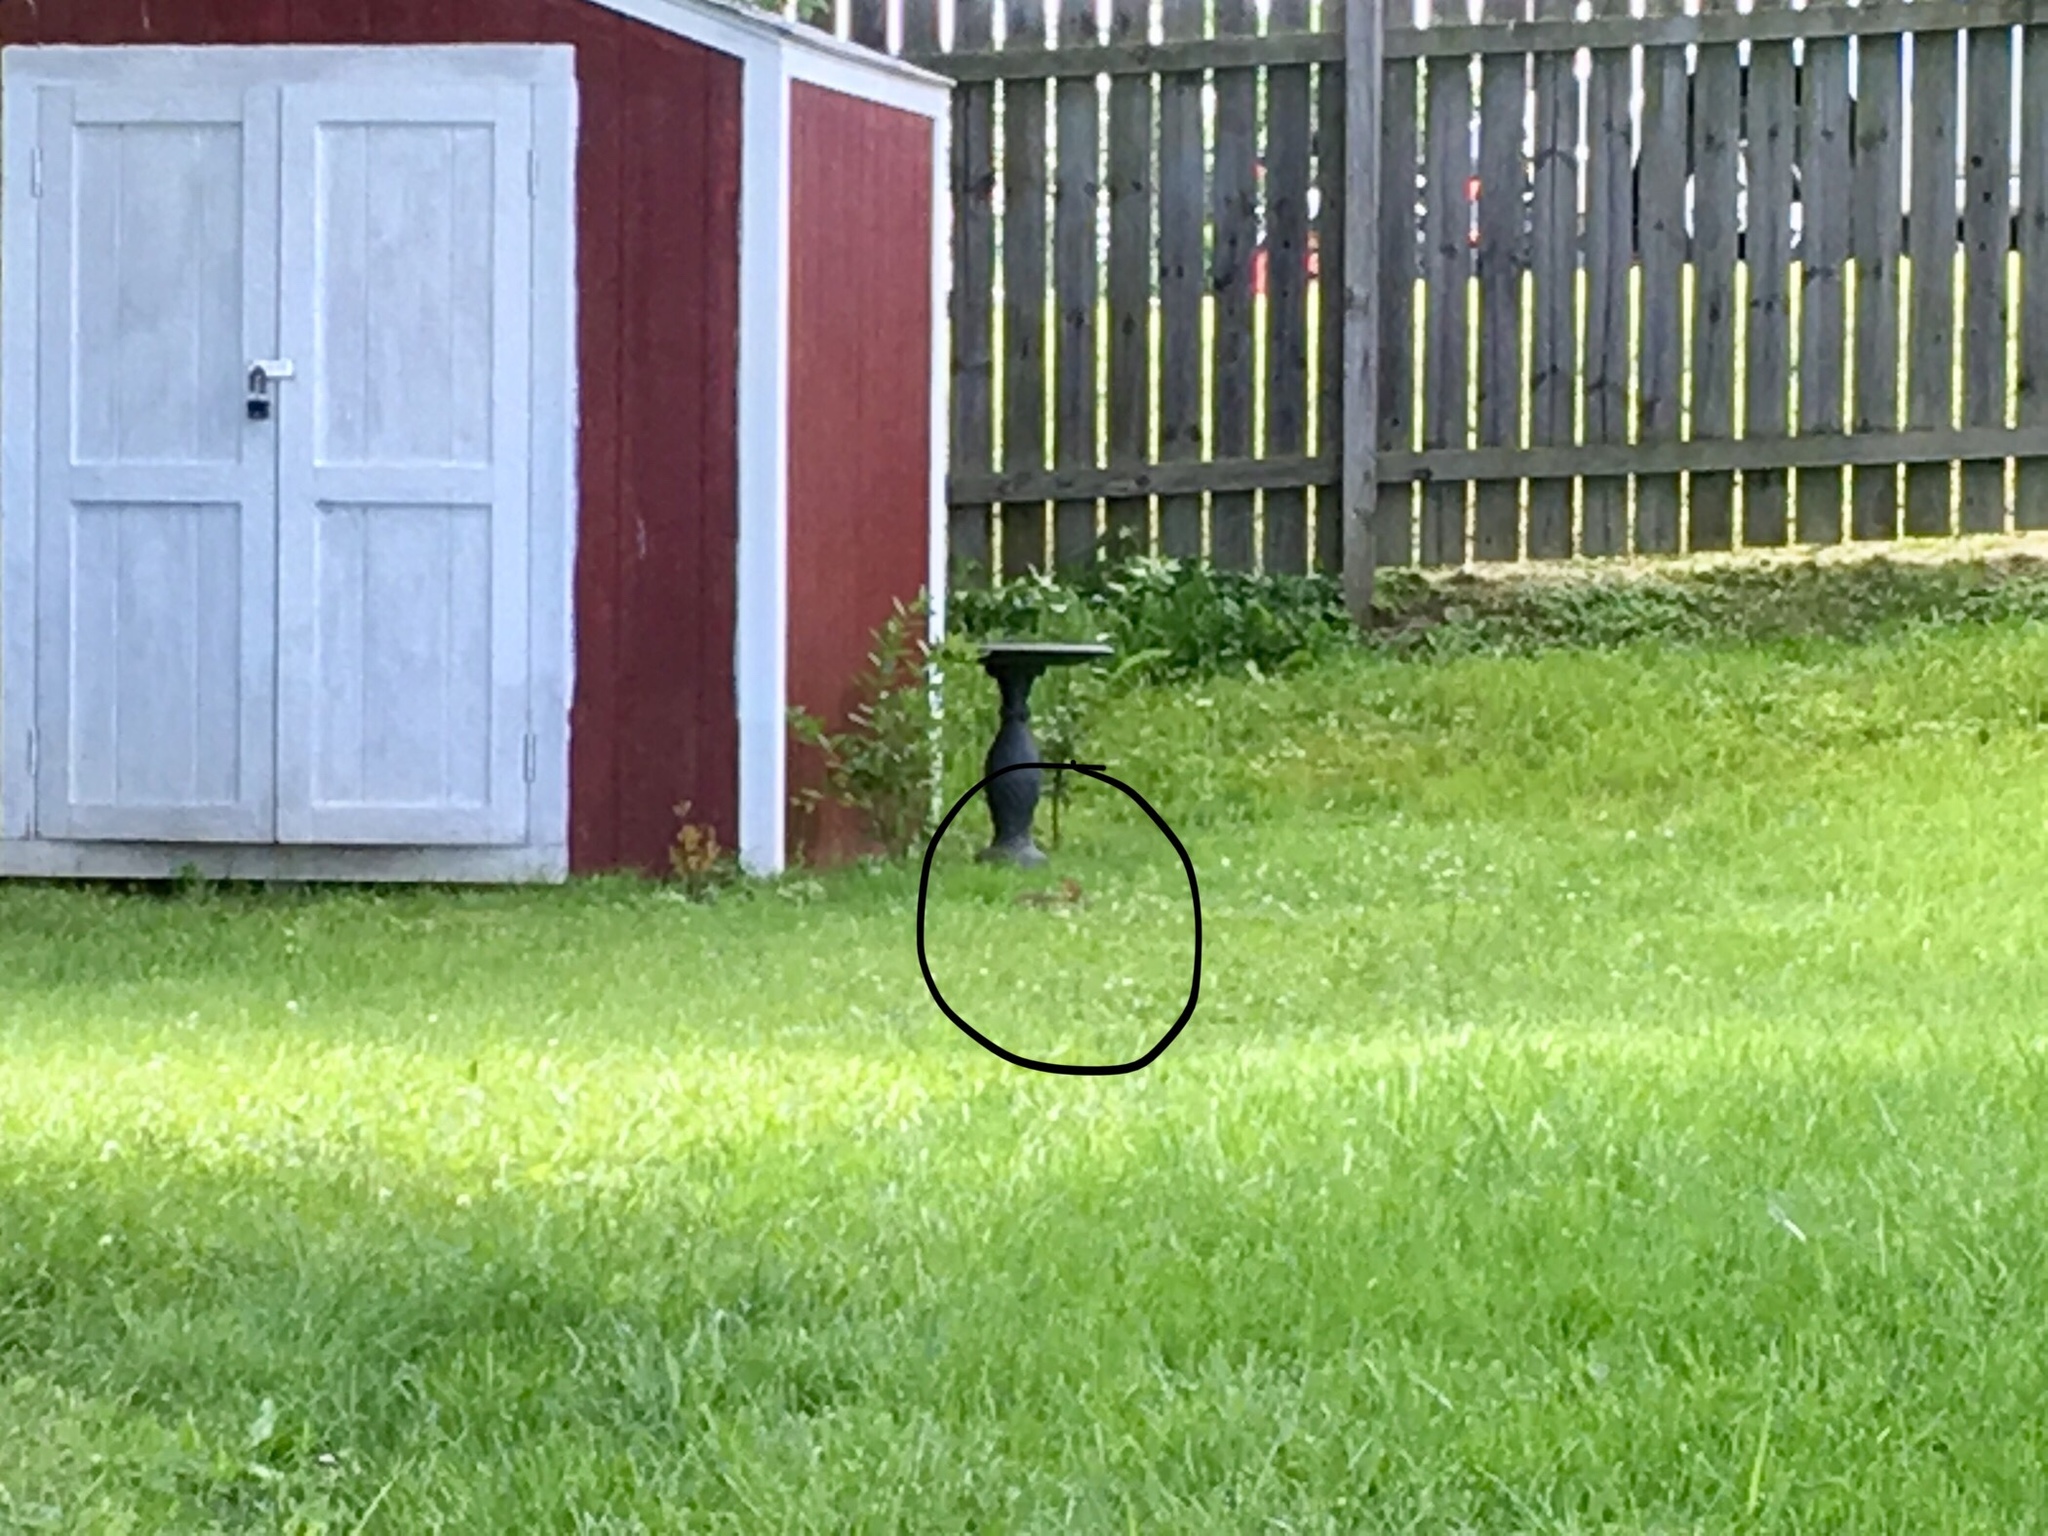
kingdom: Animalia
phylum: Chordata
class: Mammalia
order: Lagomorpha
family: Leporidae
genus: Sylvilagus
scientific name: Sylvilagus floridanus
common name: Eastern cottontail
